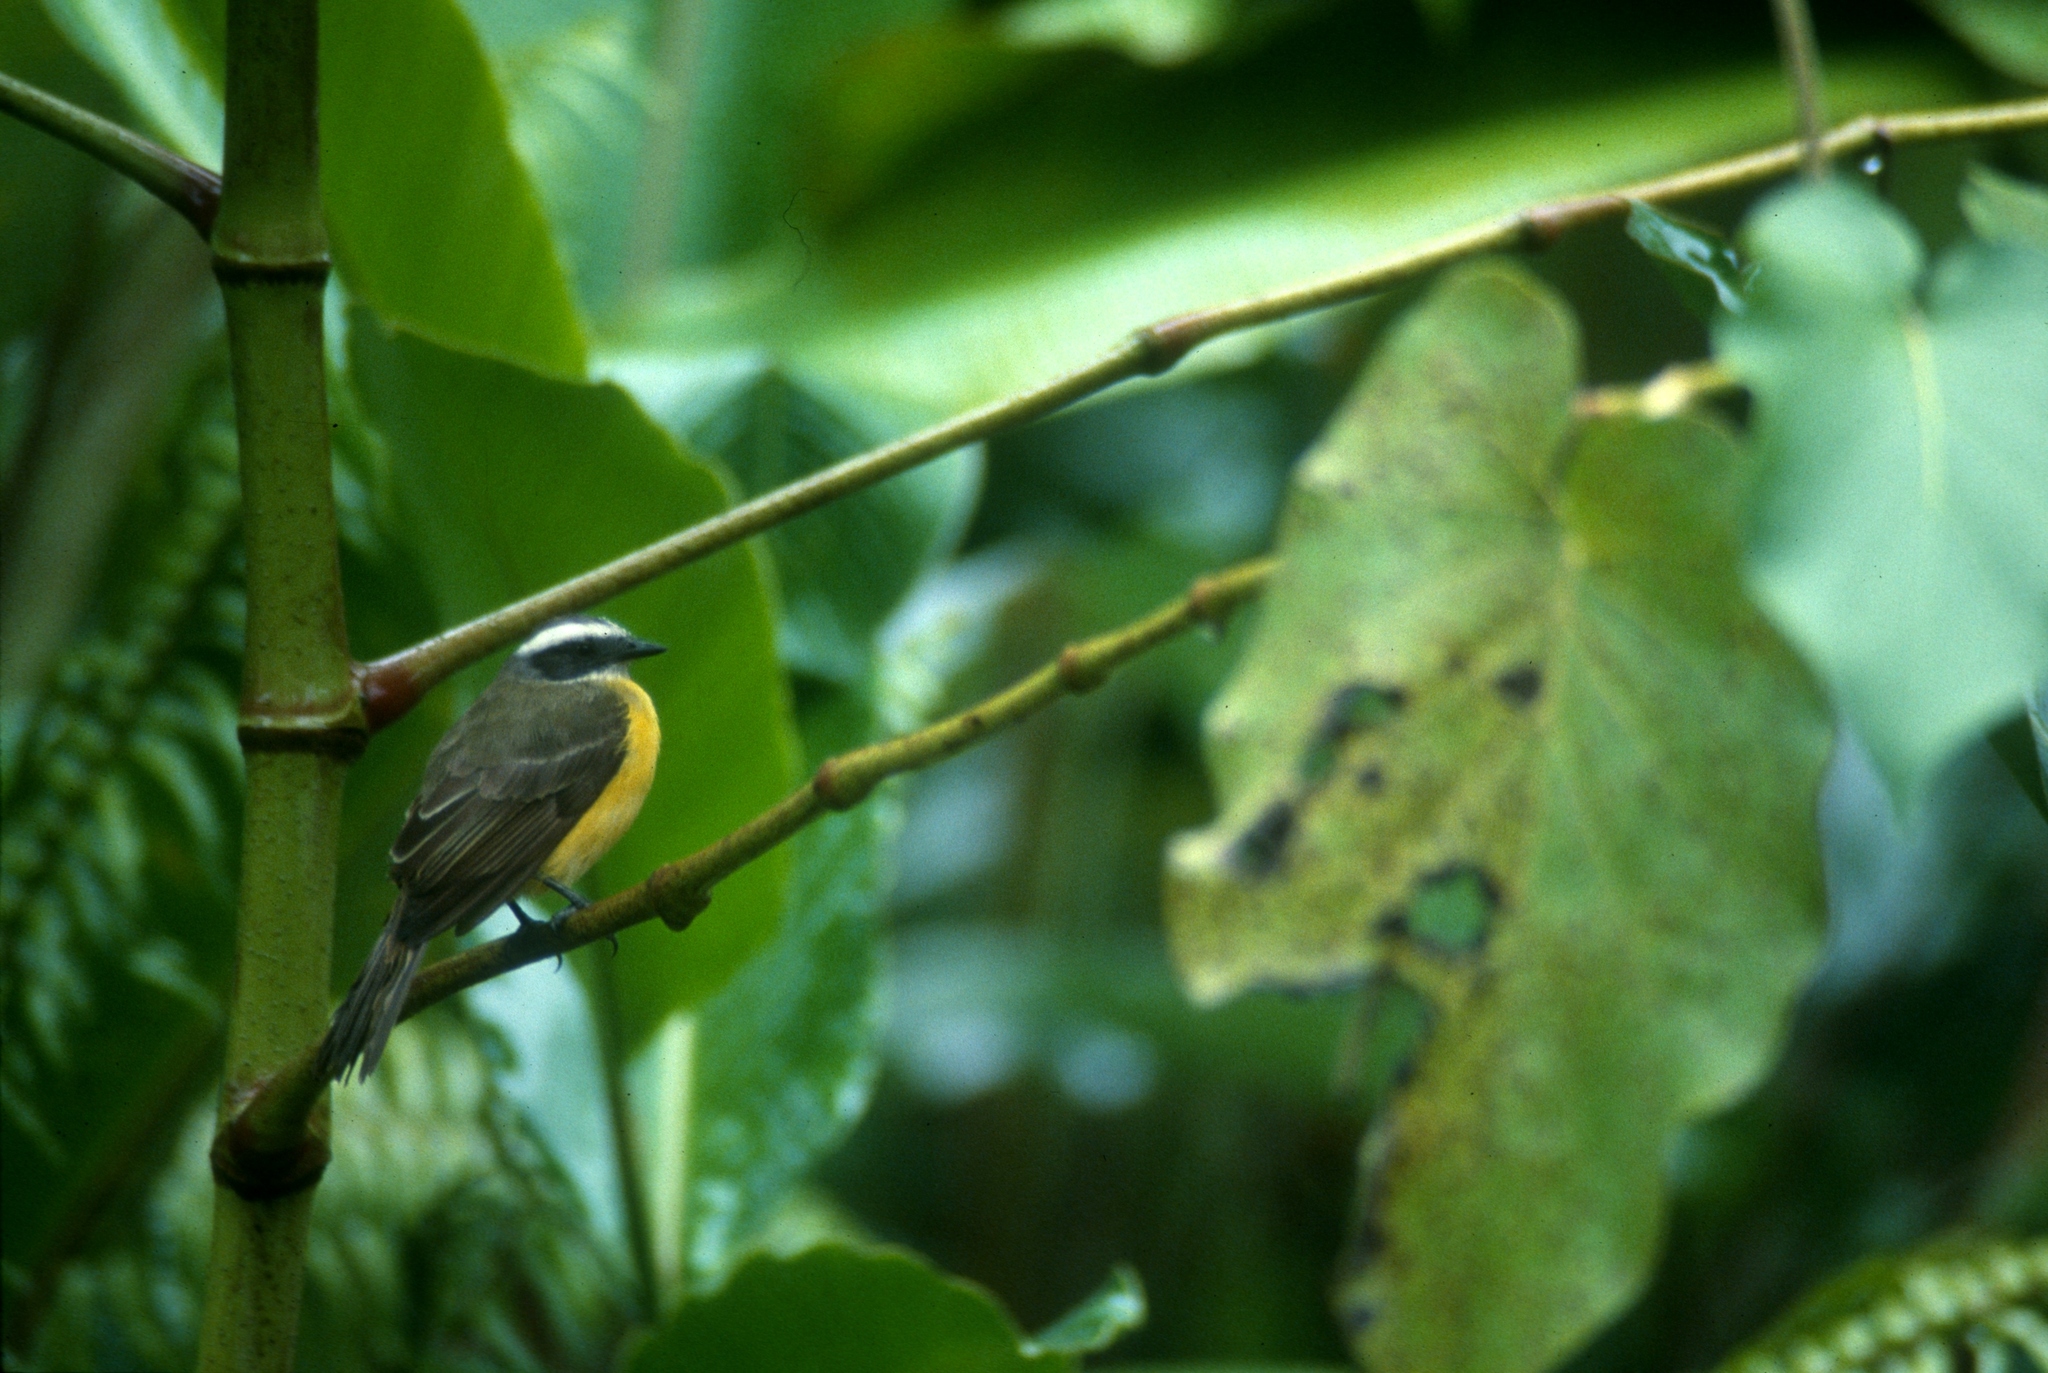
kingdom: Animalia
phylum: Chordata
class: Aves
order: Passeriformes
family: Tyrannidae
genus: Myiozetetes
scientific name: Myiozetetes similis
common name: Social flycatcher
